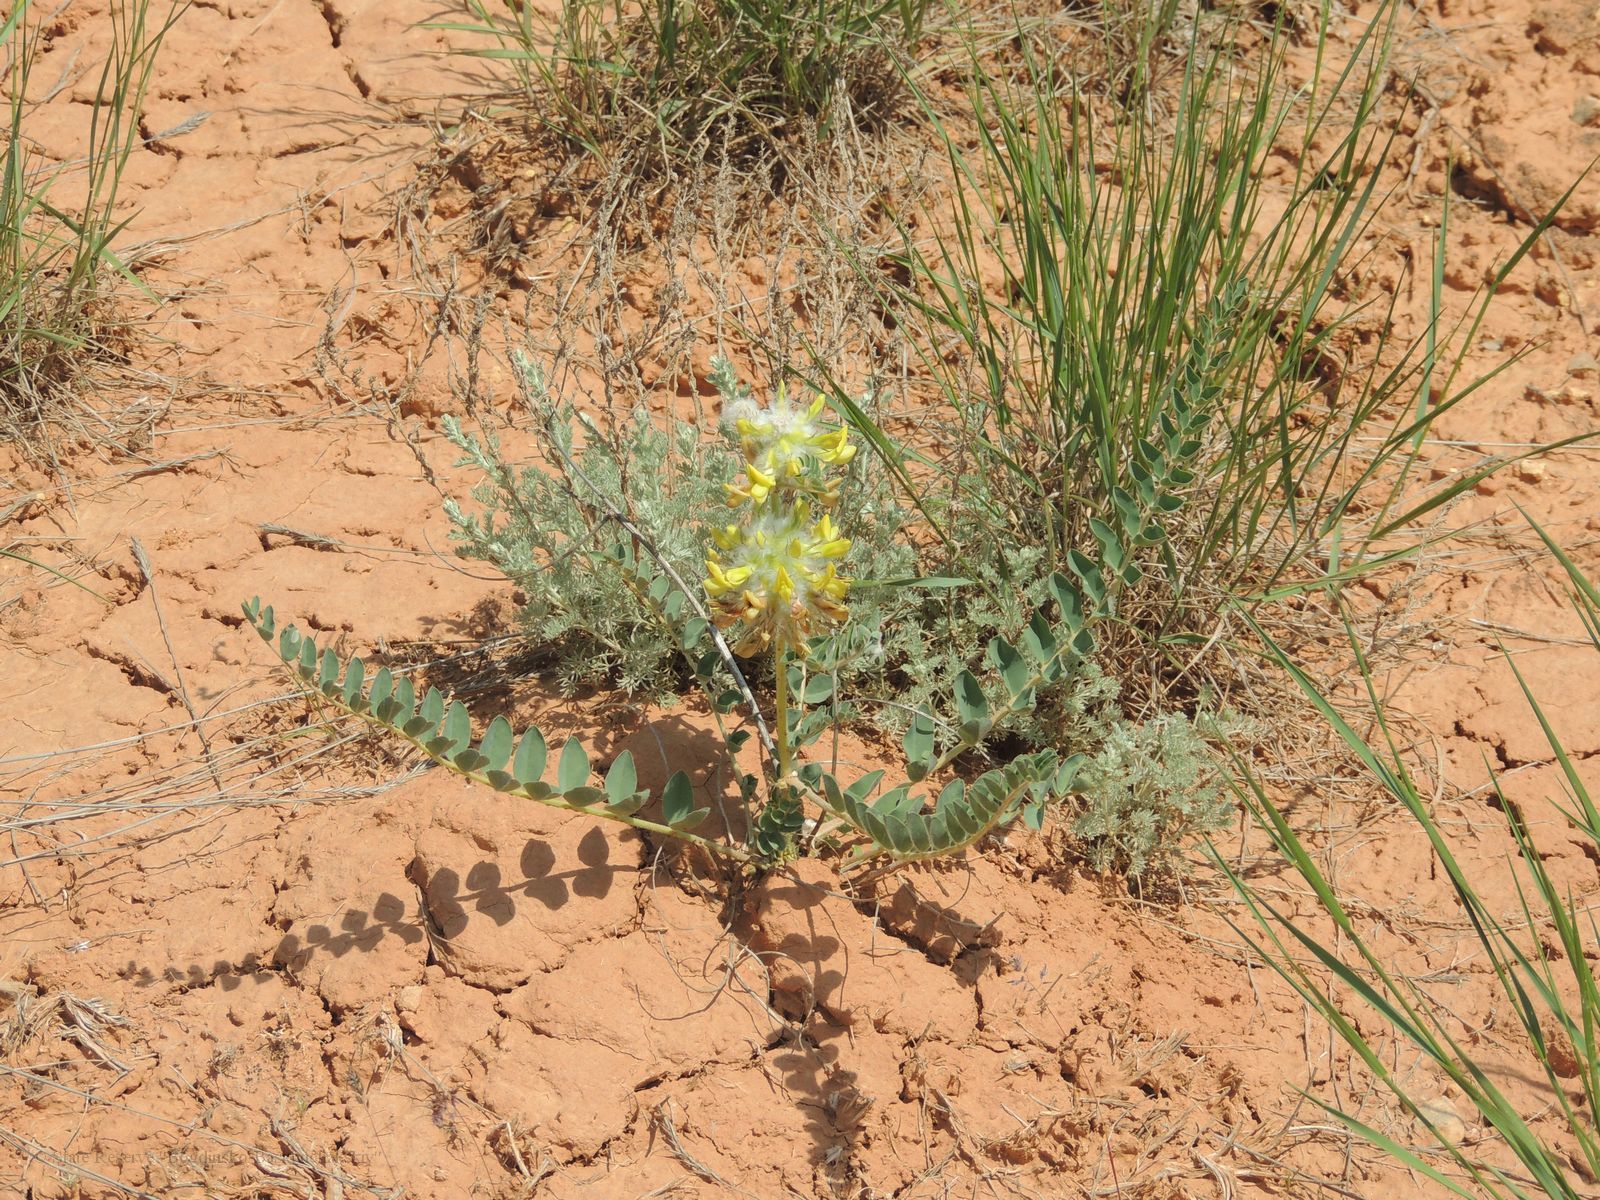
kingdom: Plantae
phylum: Tracheophyta
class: Magnoliopsida
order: Fabales
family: Fabaceae
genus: Astragalus
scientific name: Astragalus vulpinus
